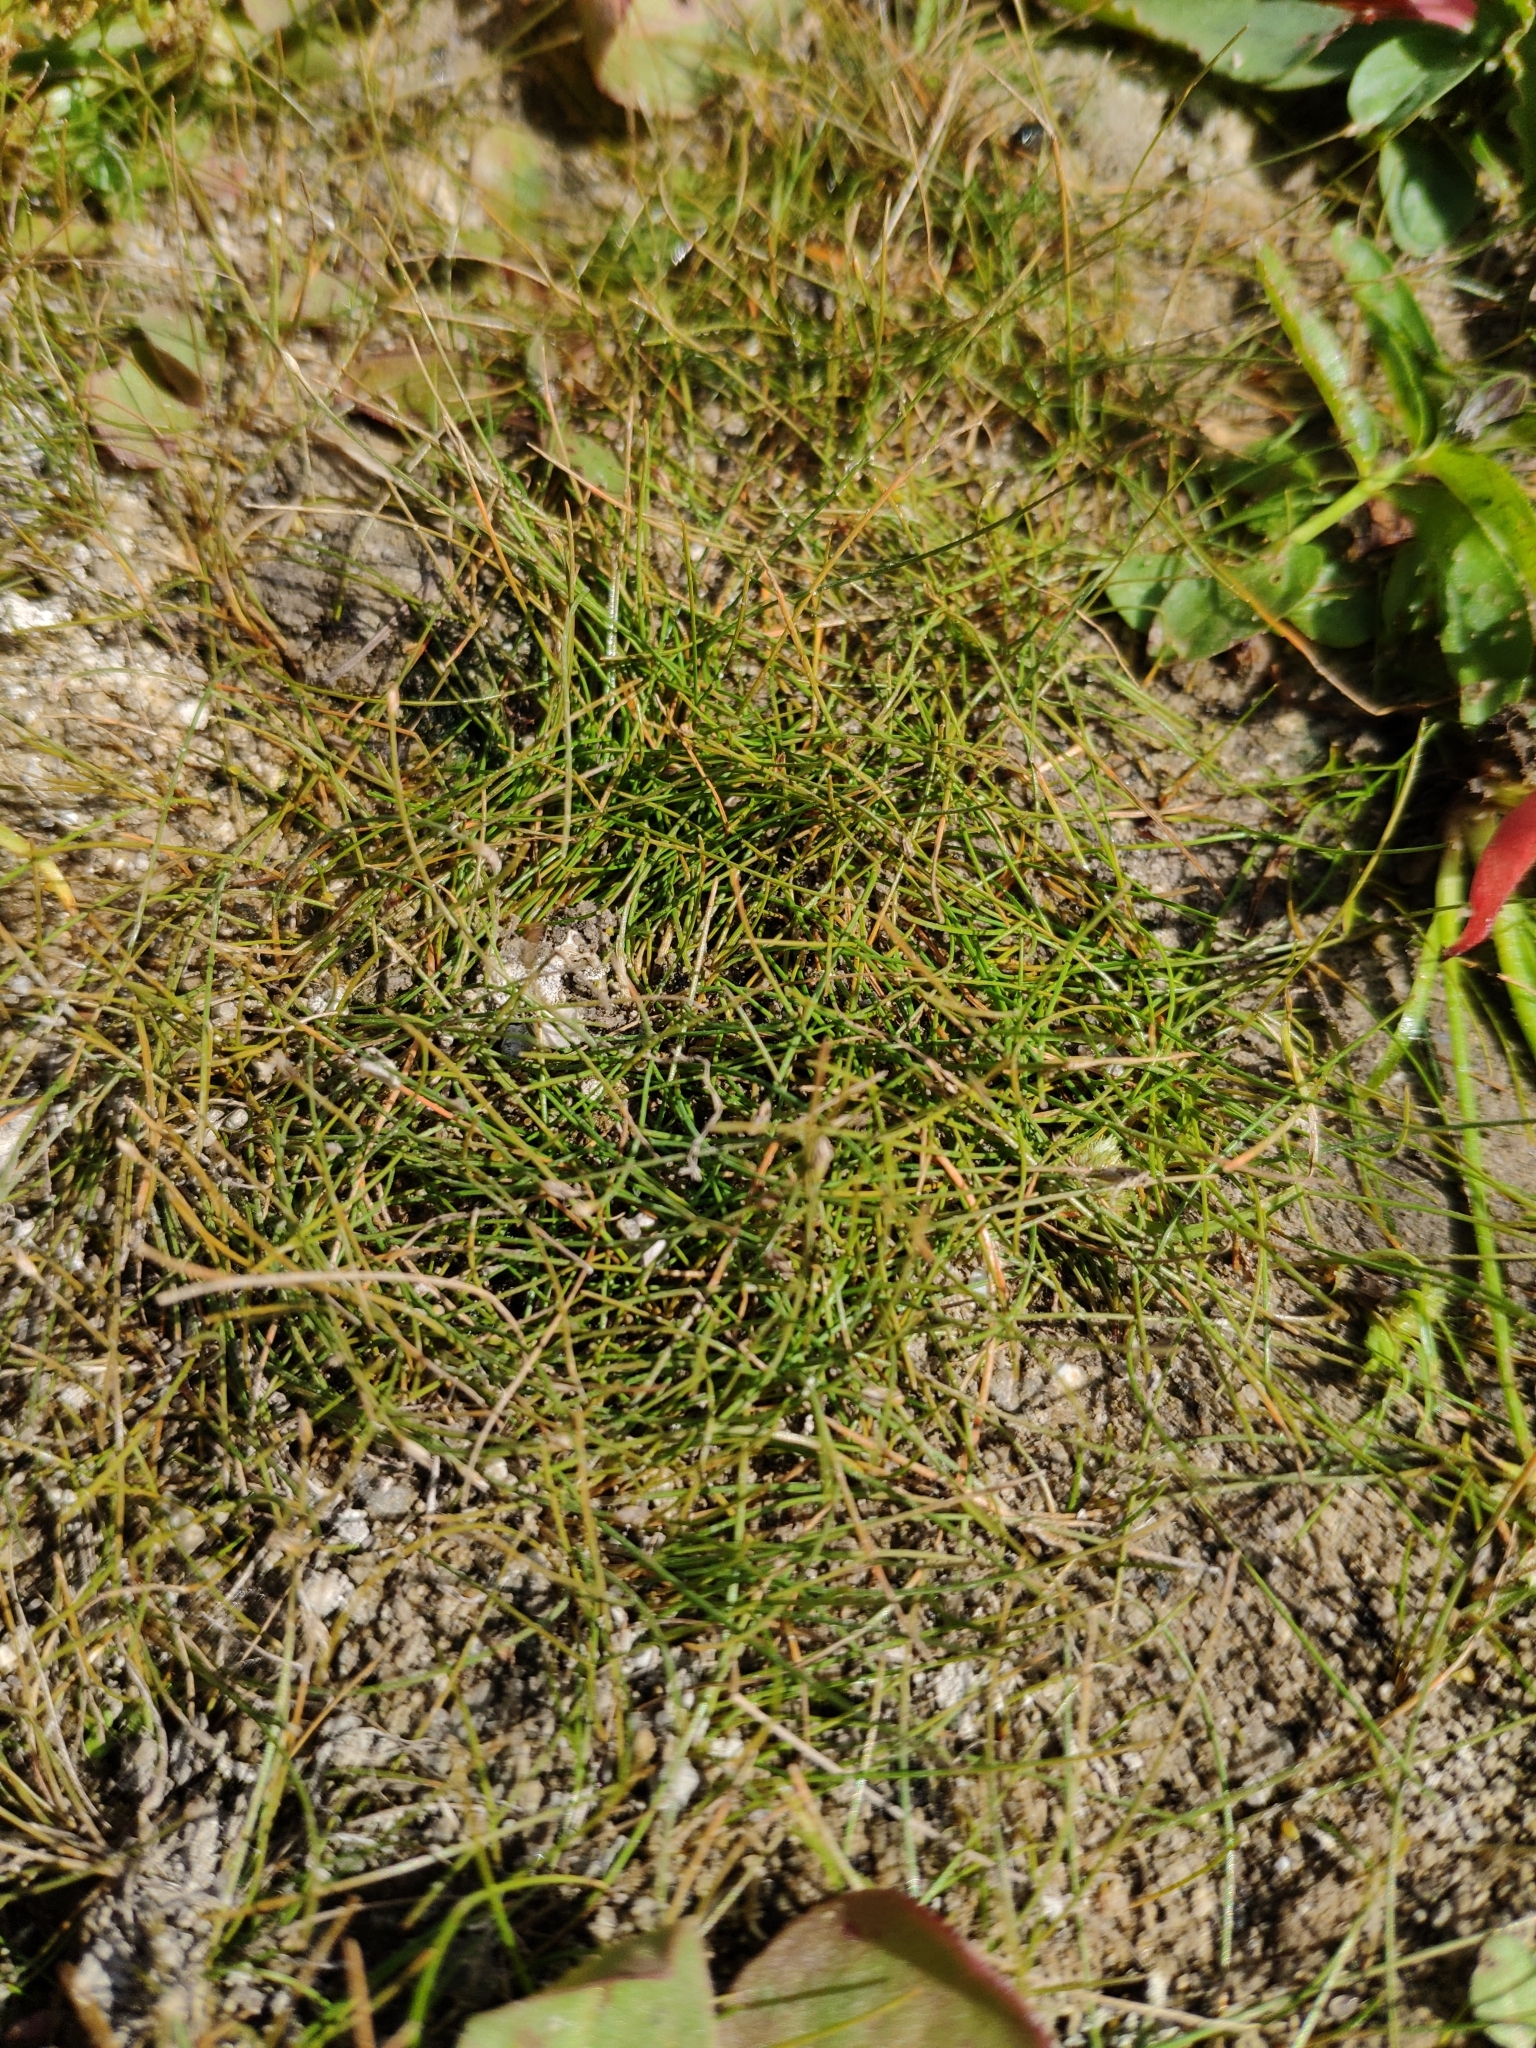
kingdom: Plantae
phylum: Tracheophyta
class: Liliopsida
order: Poales
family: Cyperaceae
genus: Eleocharis
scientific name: Eleocharis acicularis
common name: Needle spike-rush
